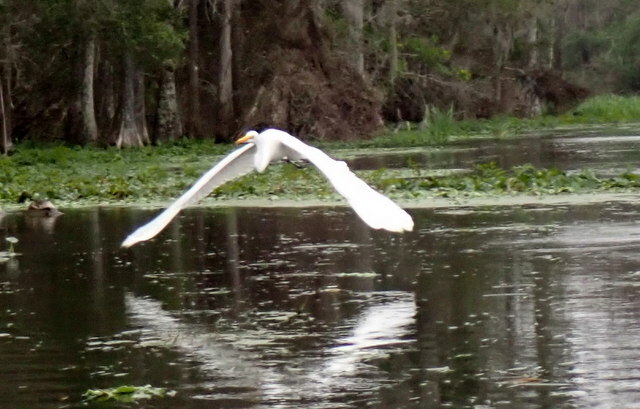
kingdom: Animalia
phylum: Chordata
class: Aves
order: Pelecaniformes
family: Ardeidae
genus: Ardea
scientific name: Ardea alba
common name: Great egret
